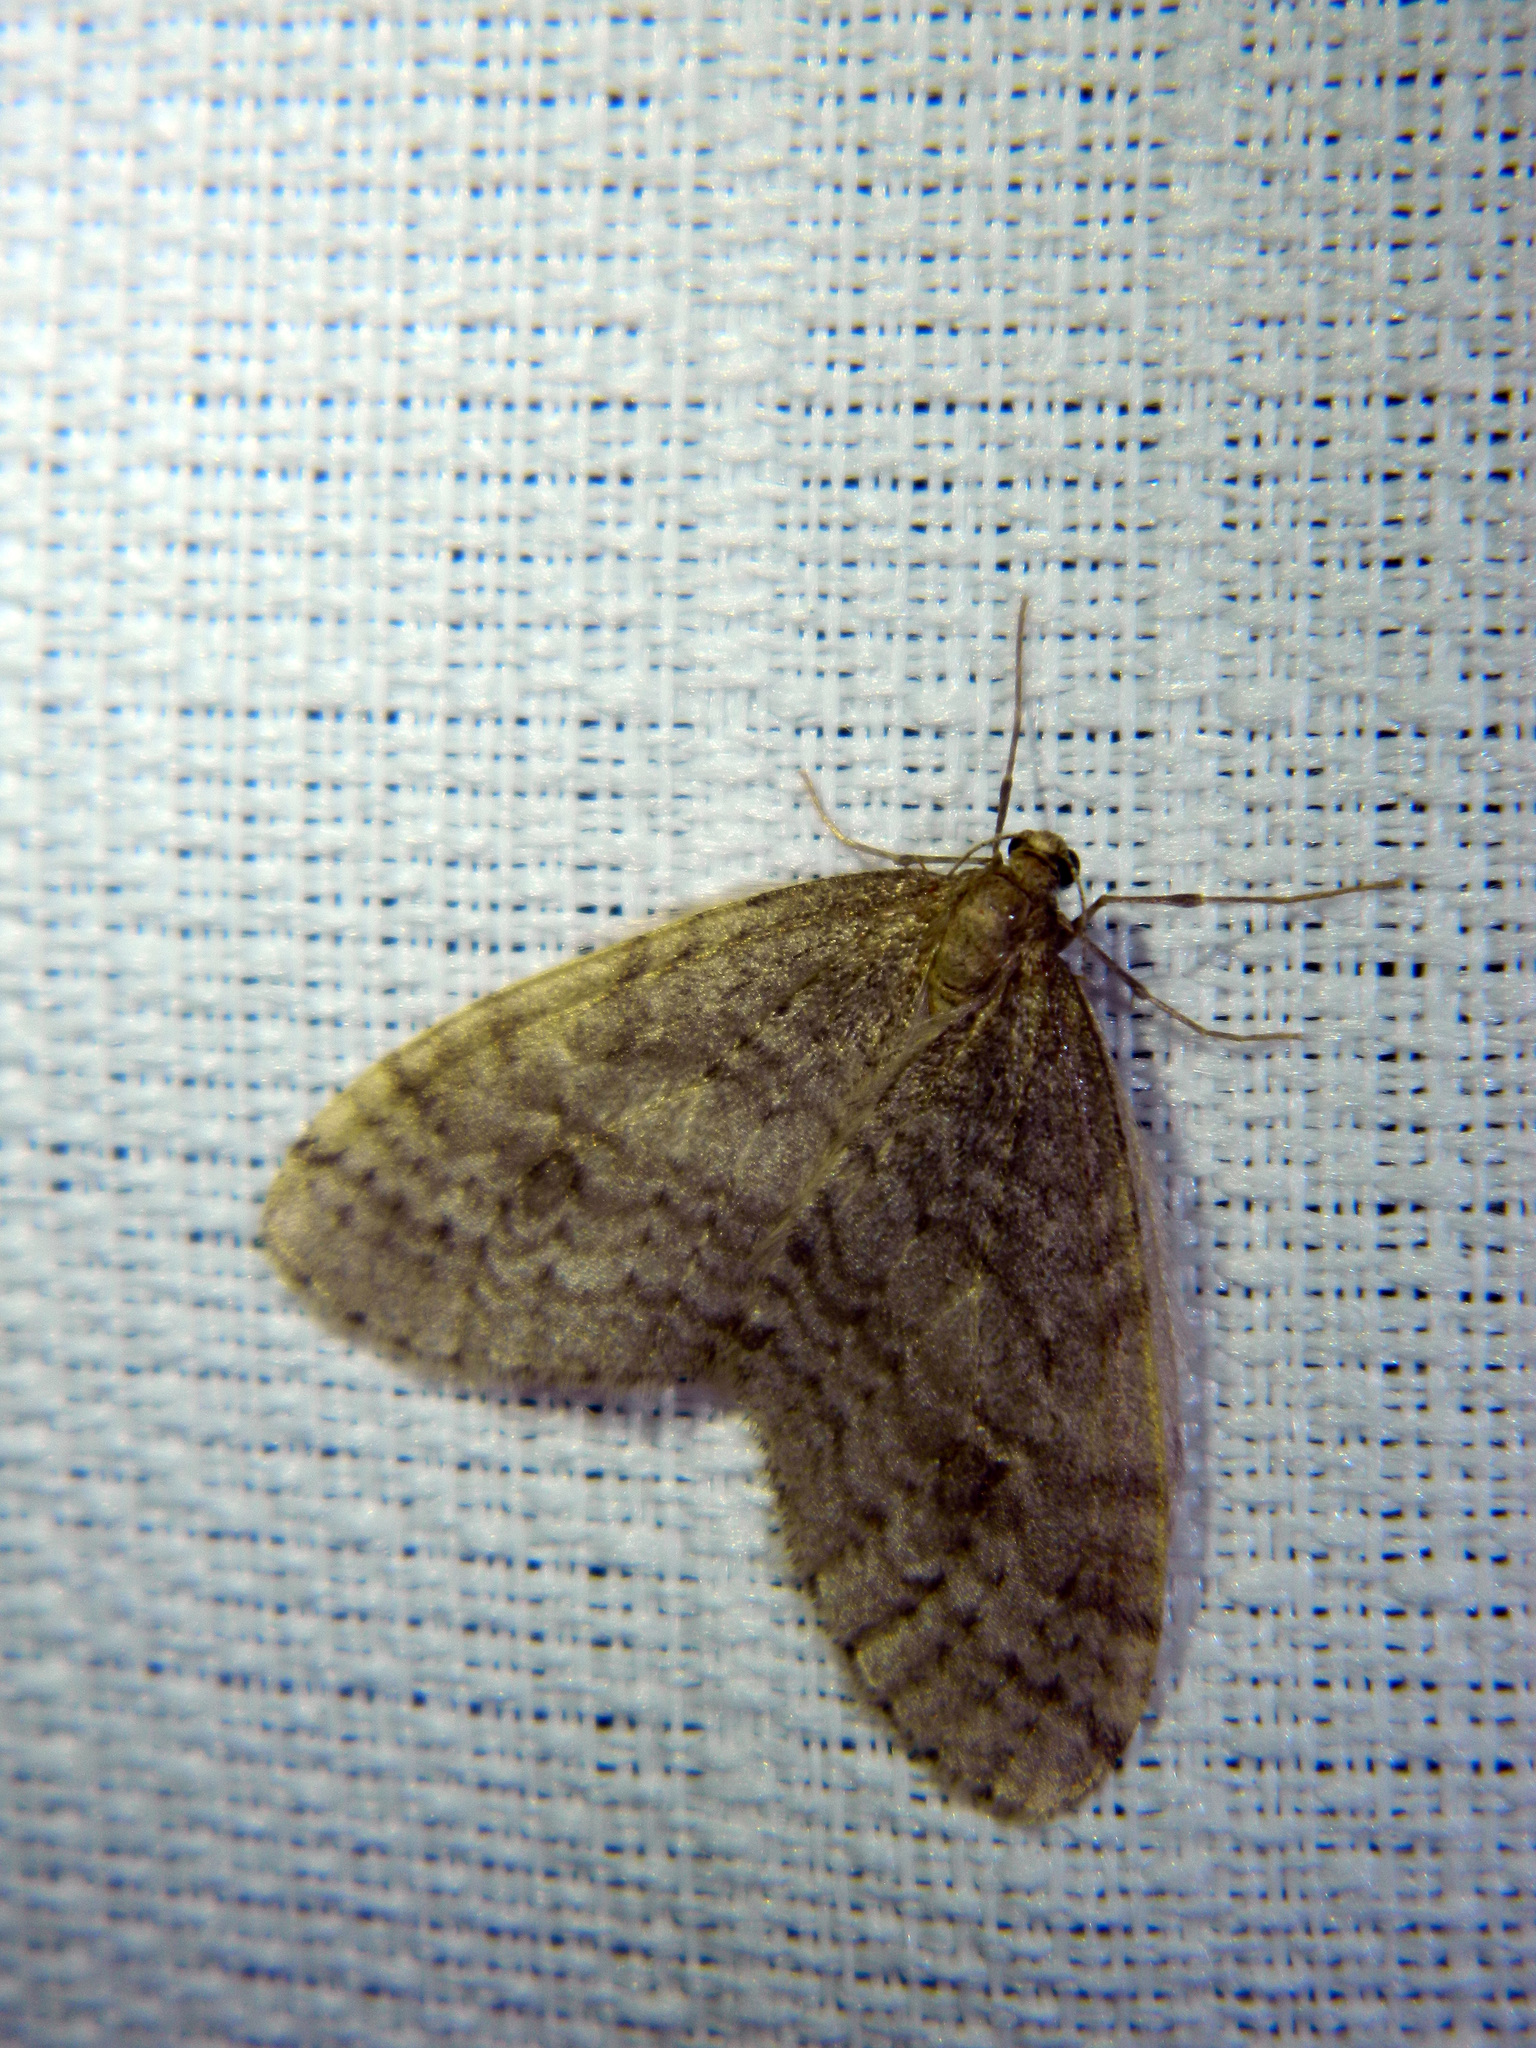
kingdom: Animalia
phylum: Arthropoda
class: Insecta
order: Lepidoptera
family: Geometridae
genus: Operophtera
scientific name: Operophtera bruceata
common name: Bruce spanworm
